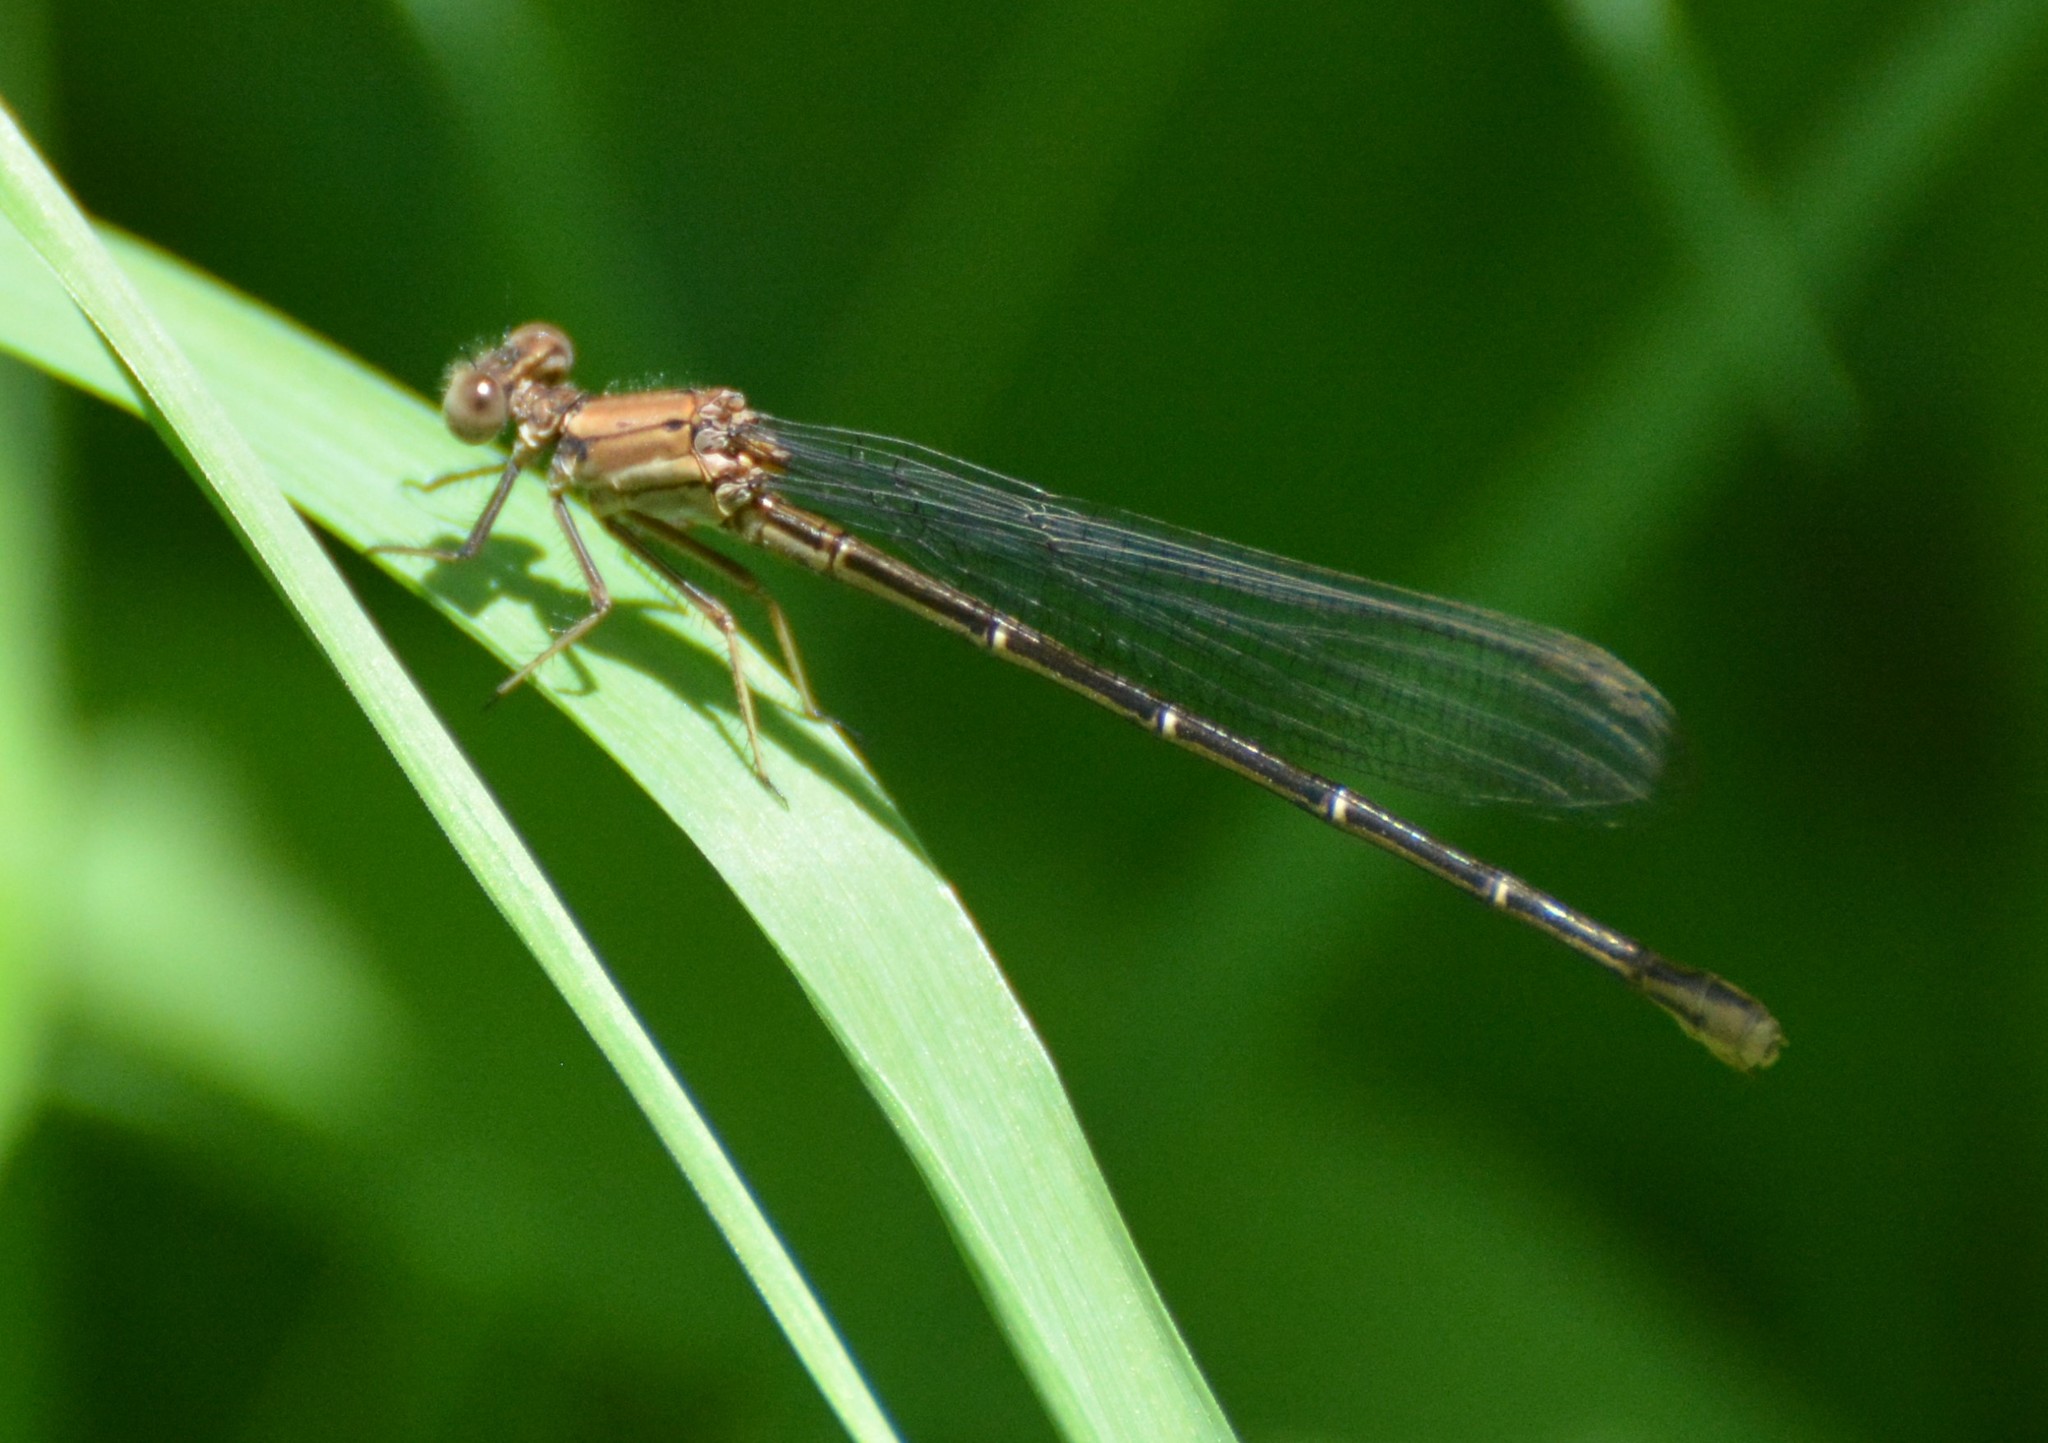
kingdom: Animalia
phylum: Arthropoda
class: Insecta
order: Odonata
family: Coenagrionidae
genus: Argia
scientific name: Argia moesta
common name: Powdered dancer
